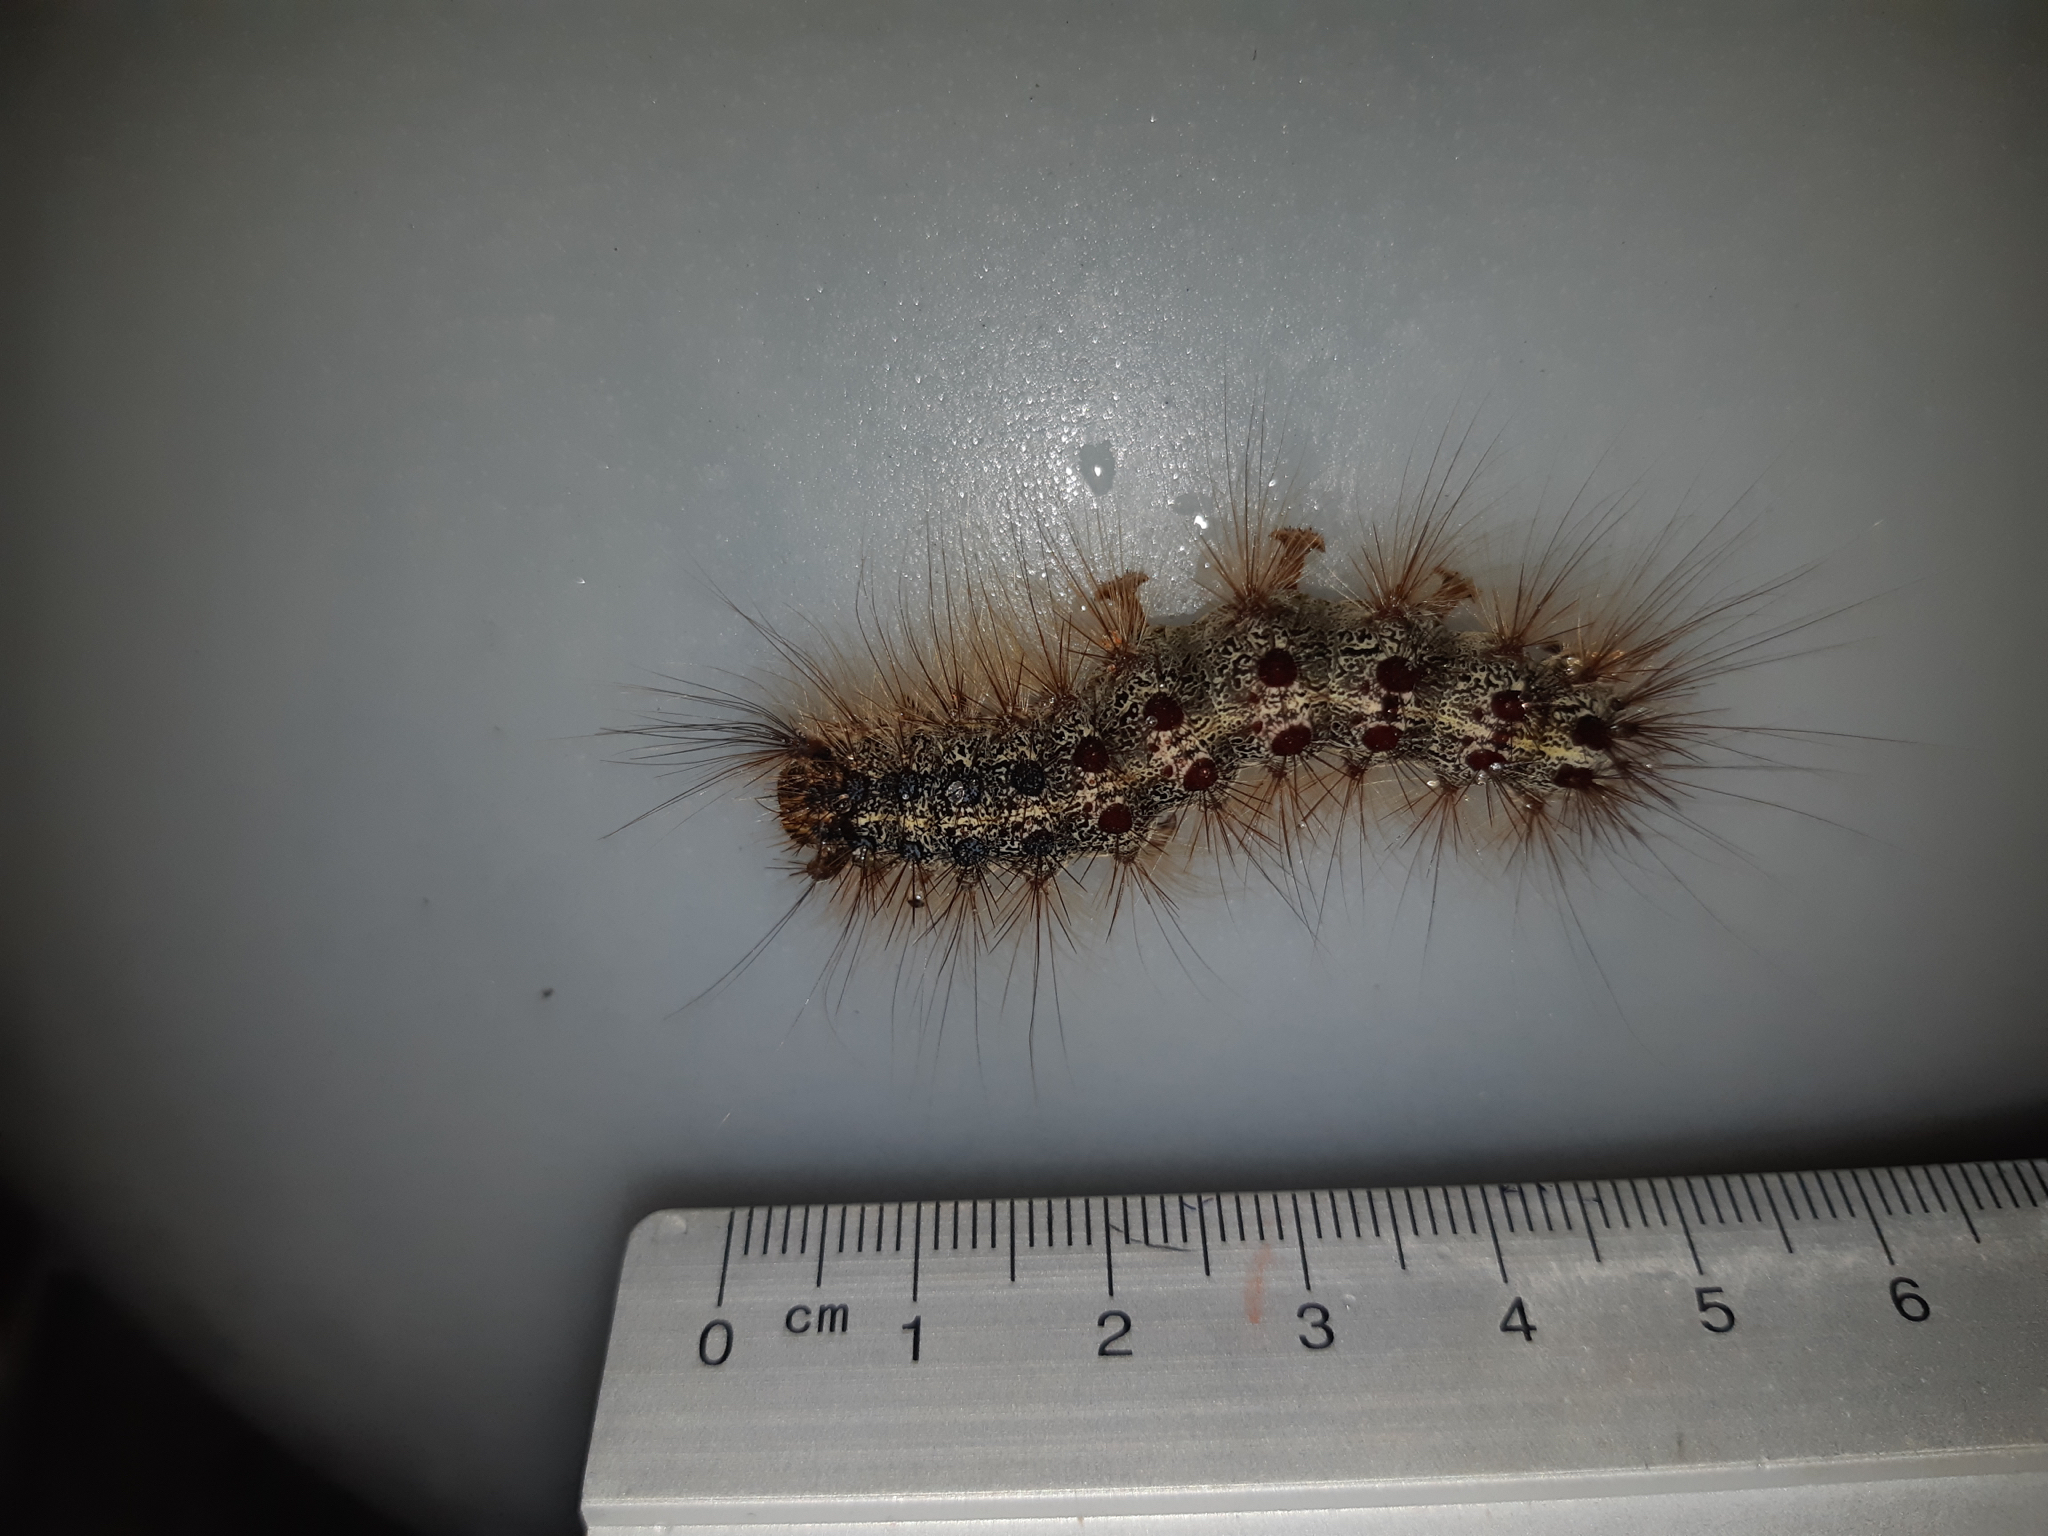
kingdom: Animalia
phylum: Arthropoda
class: Insecta
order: Lepidoptera
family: Erebidae
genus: Lymantria
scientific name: Lymantria dispar
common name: Gypsy moth
